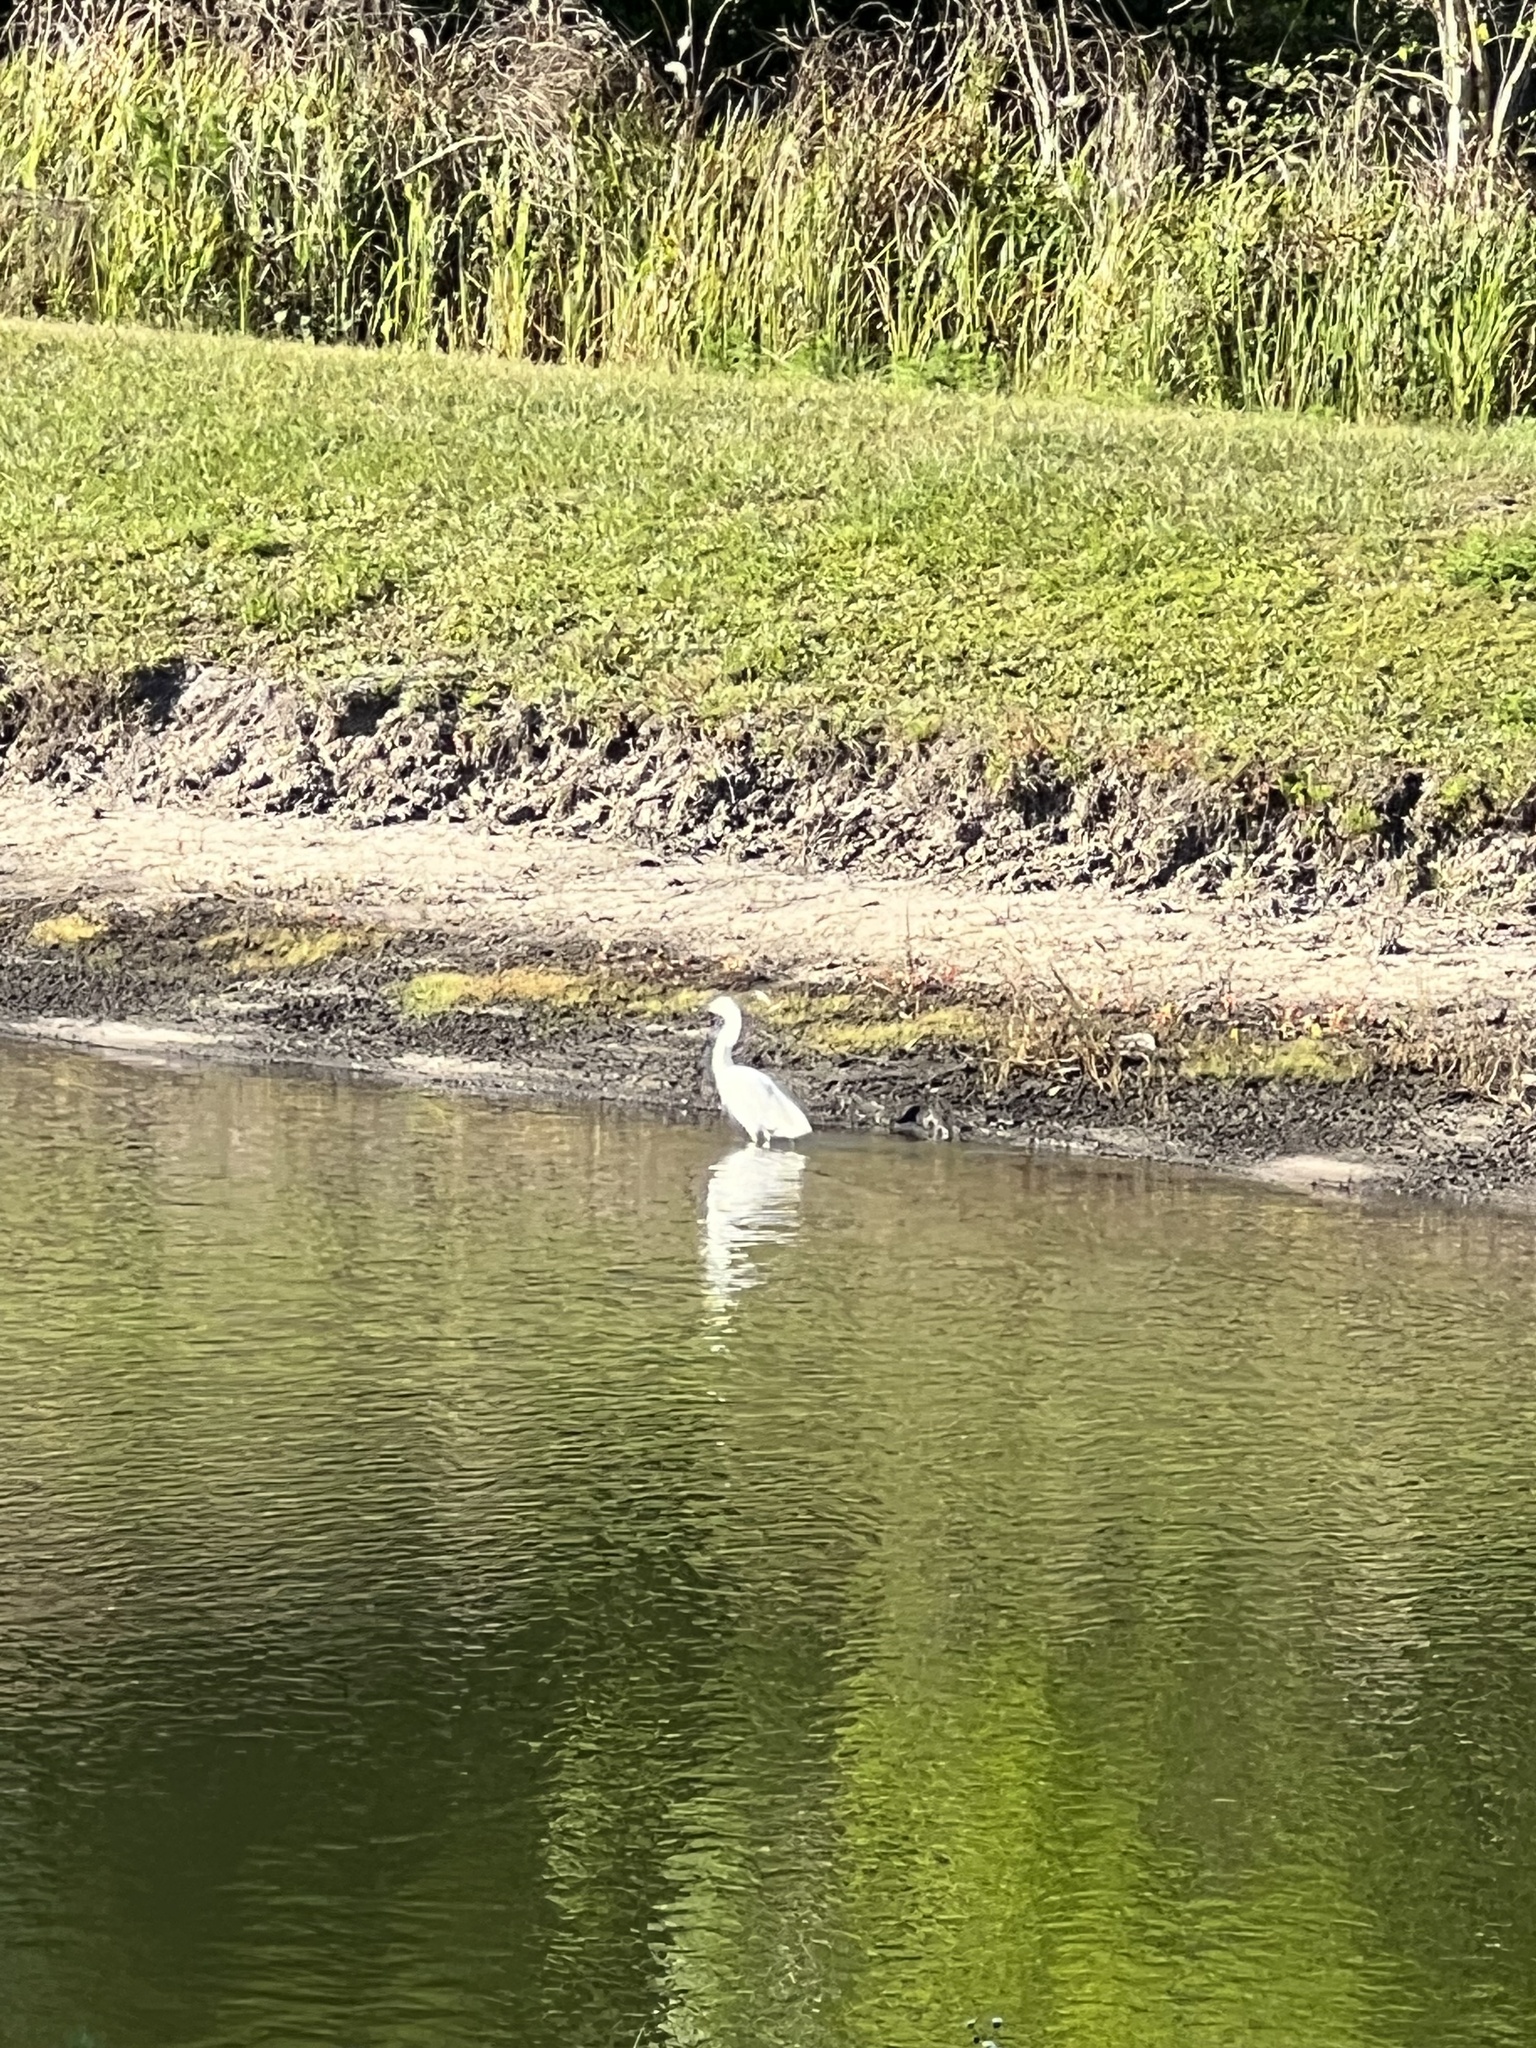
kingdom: Animalia
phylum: Chordata
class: Aves
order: Pelecaniformes
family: Ardeidae
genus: Egretta
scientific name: Egretta thula
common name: Snowy egret
